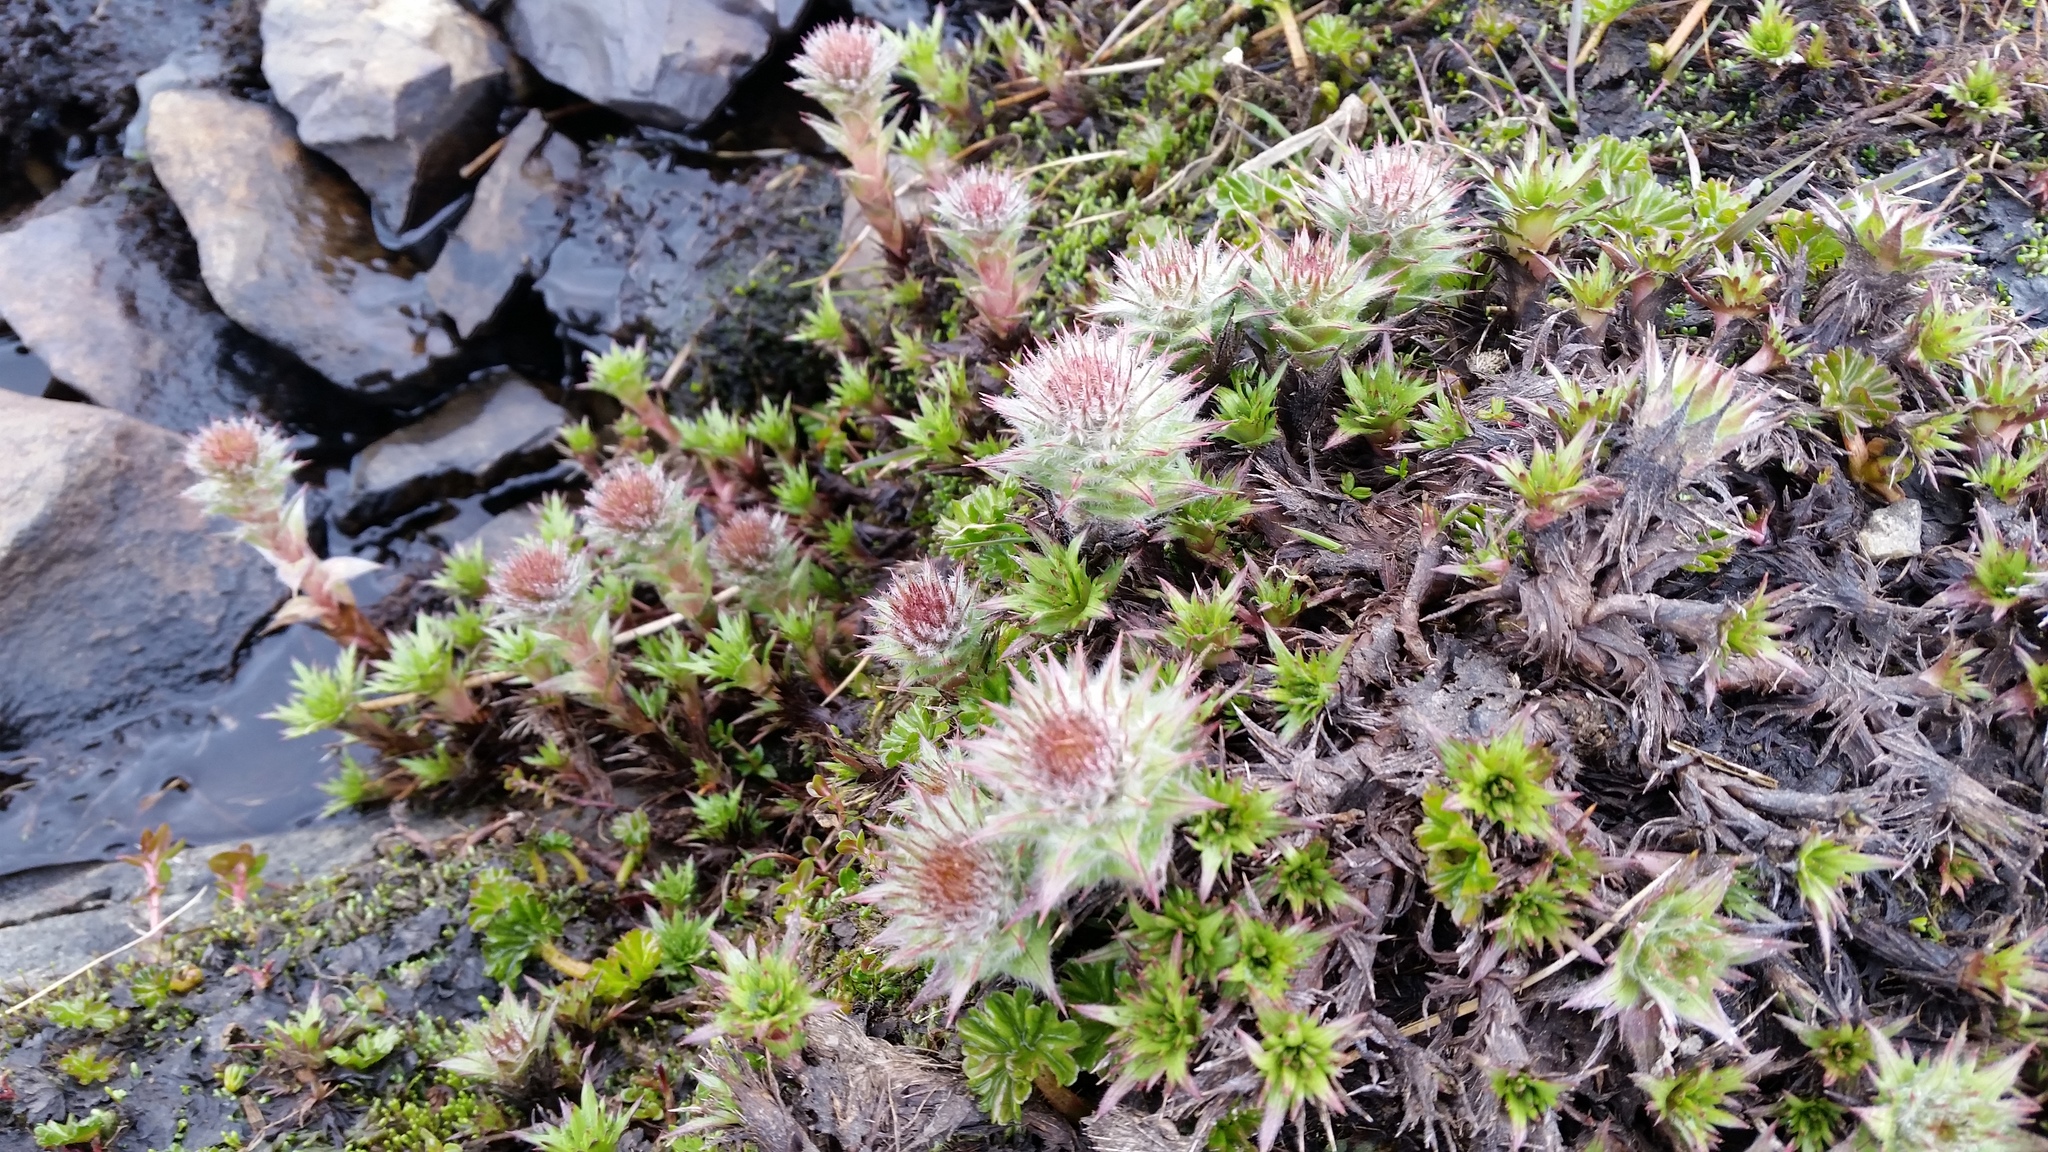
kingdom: Plantae
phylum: Tracheophyta
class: Magnoliopsida
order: Asterales
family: Asteraceae
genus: Nassauvia
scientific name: Nassauvia magellanica
